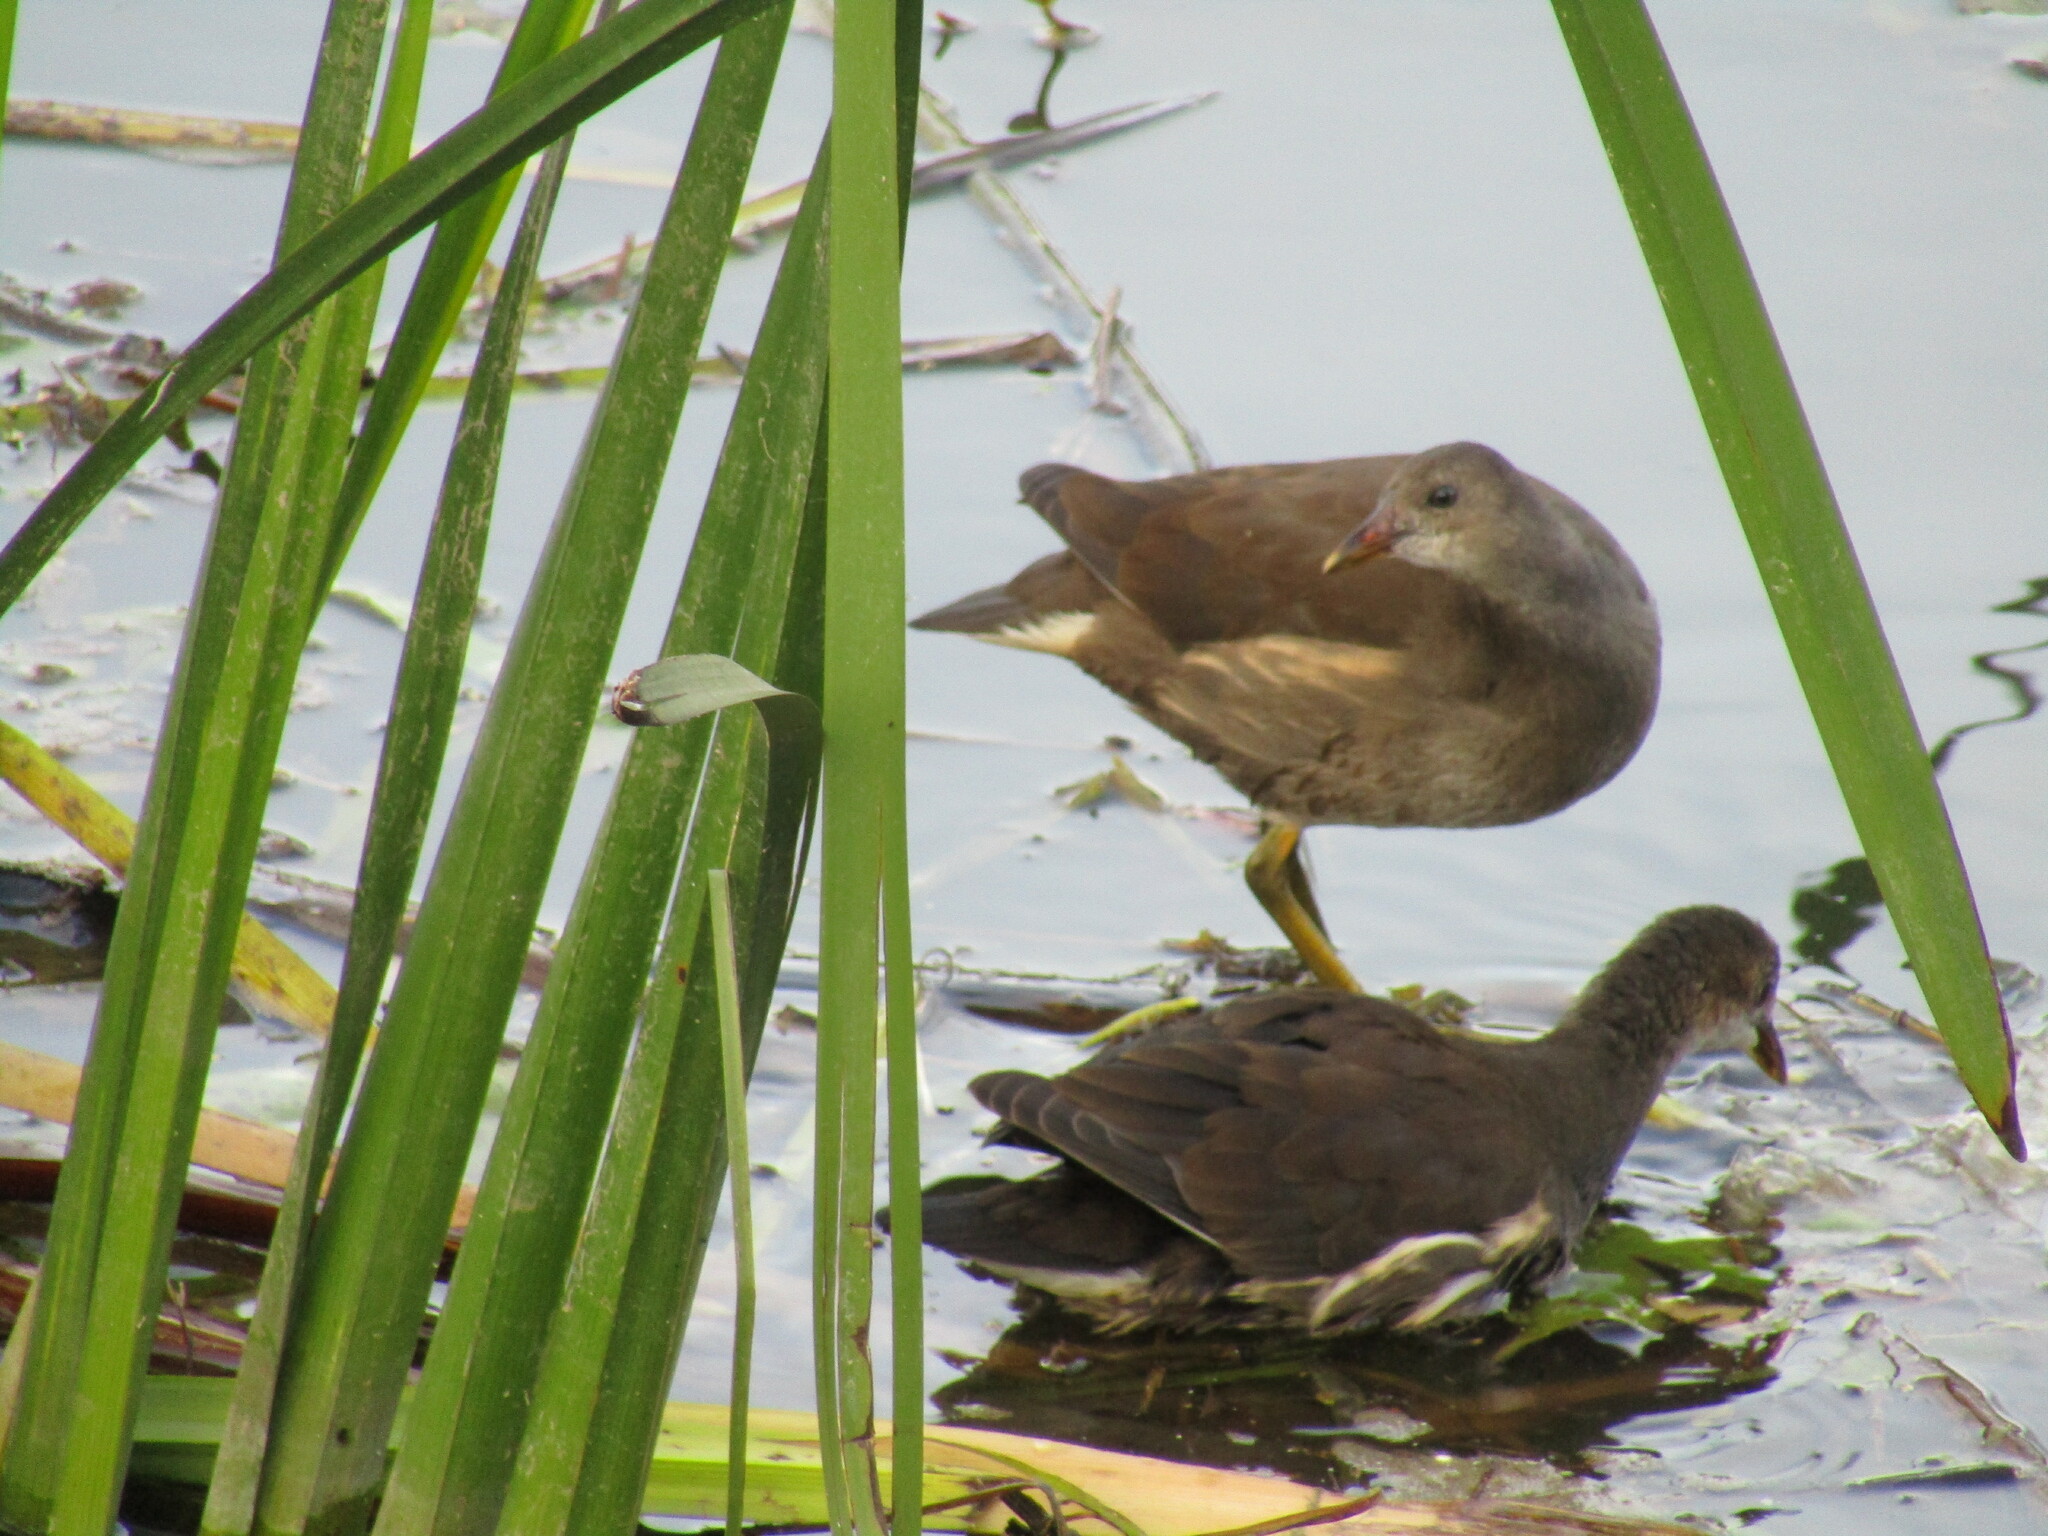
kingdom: Animalia
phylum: Chordata
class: Aves
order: Gruiformes
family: Rallidae
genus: Gallinula
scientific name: Gallinula chloropus
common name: Common moorhen
